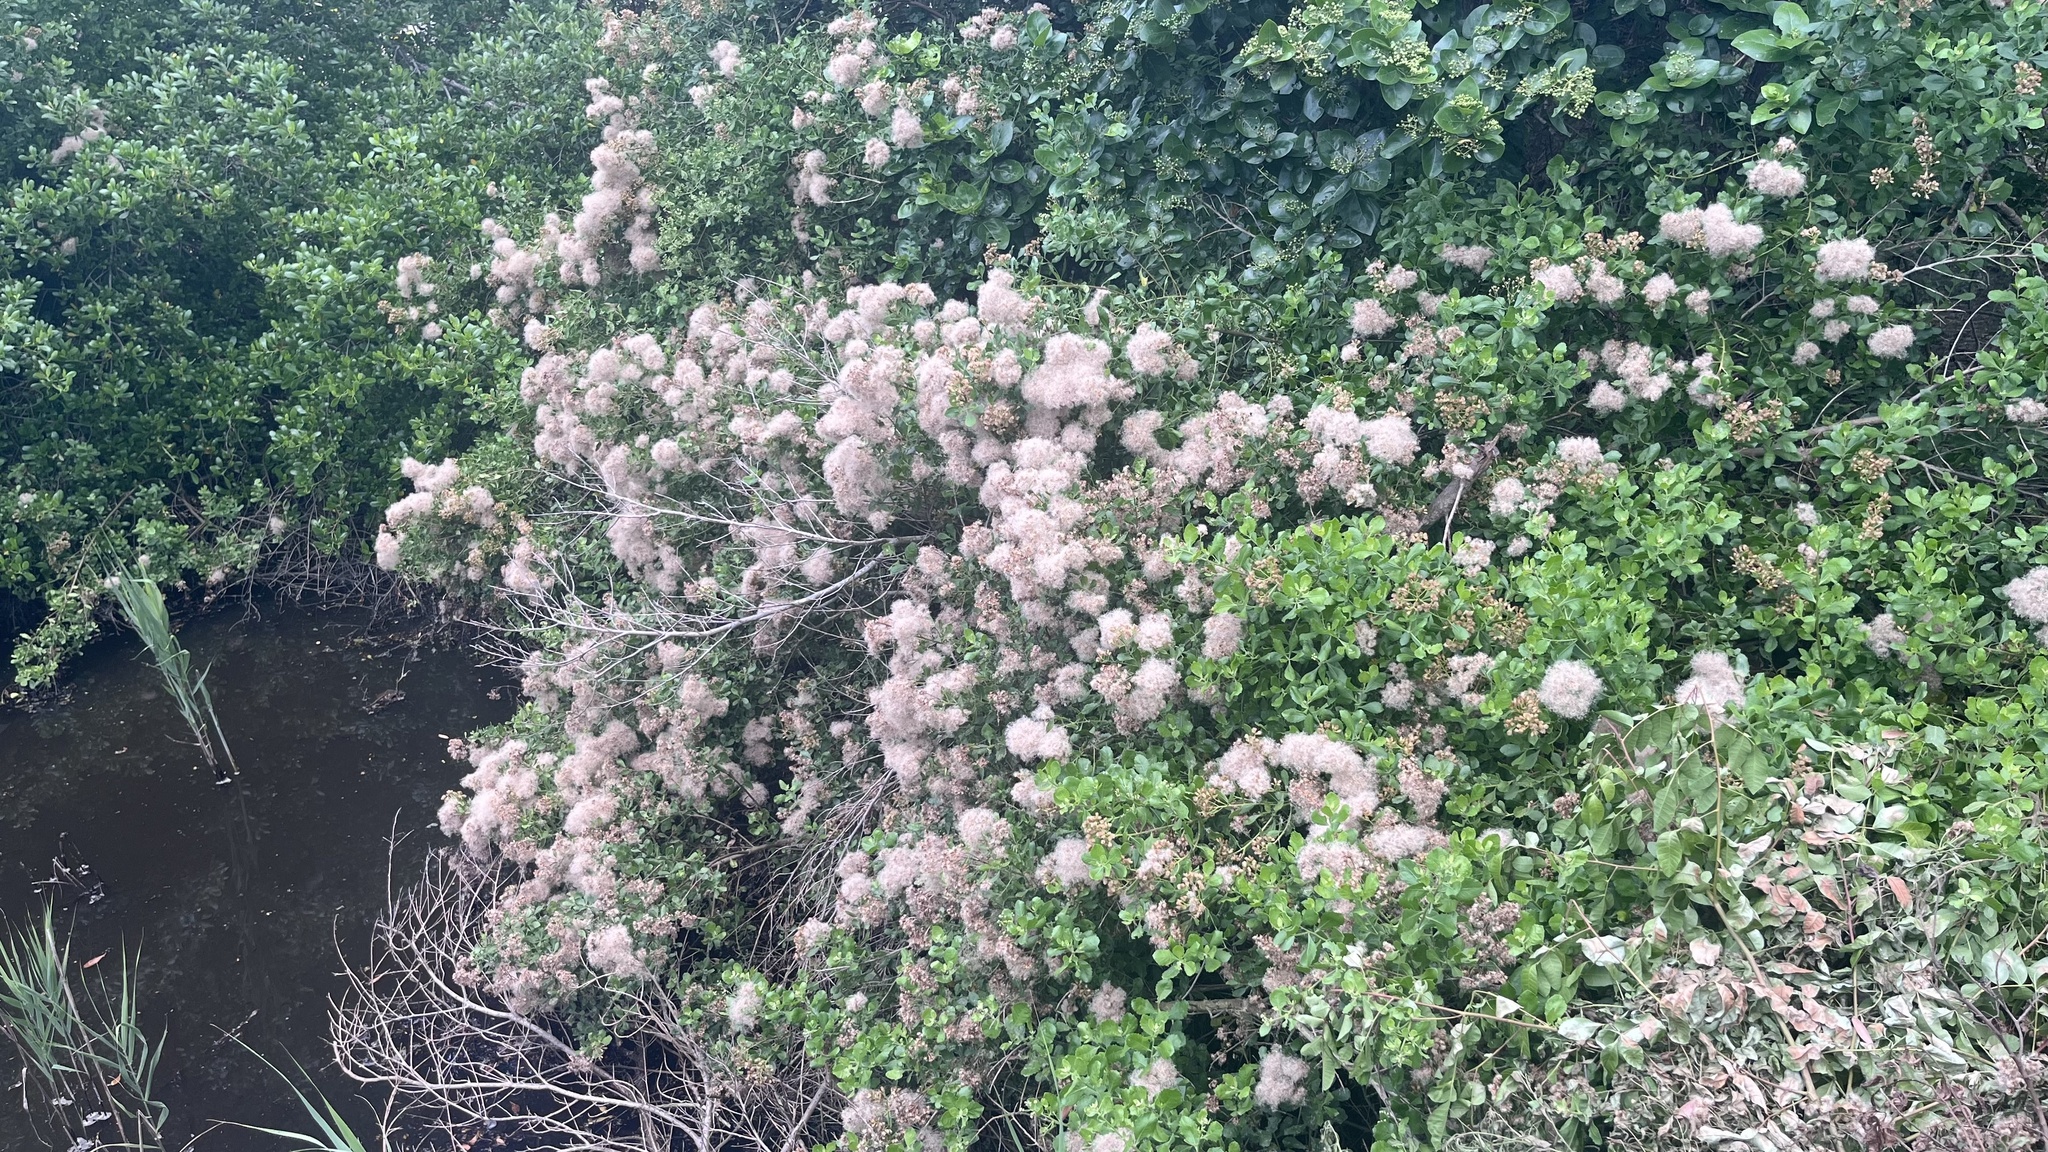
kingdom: Plantae
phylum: Tracheophyta
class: Magnoliopsida
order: Asterales
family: Asteraceae
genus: Pluchea
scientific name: Pluchea indica
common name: Indian fleabane
